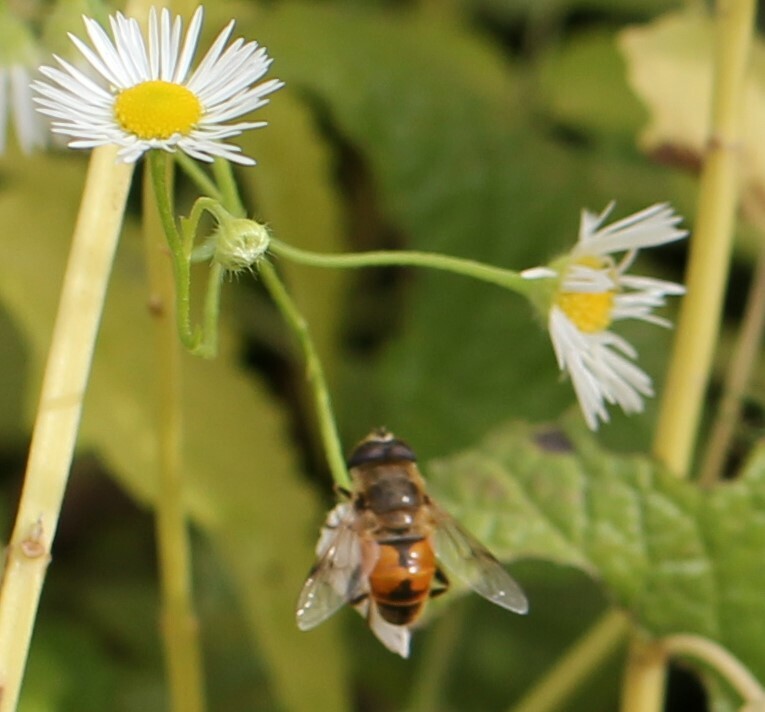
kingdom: Animalia
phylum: Arthropoda
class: Insecta
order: Diptera
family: Syrphidae
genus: Eristalis
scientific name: Eristalis tenax
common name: Drone fly
